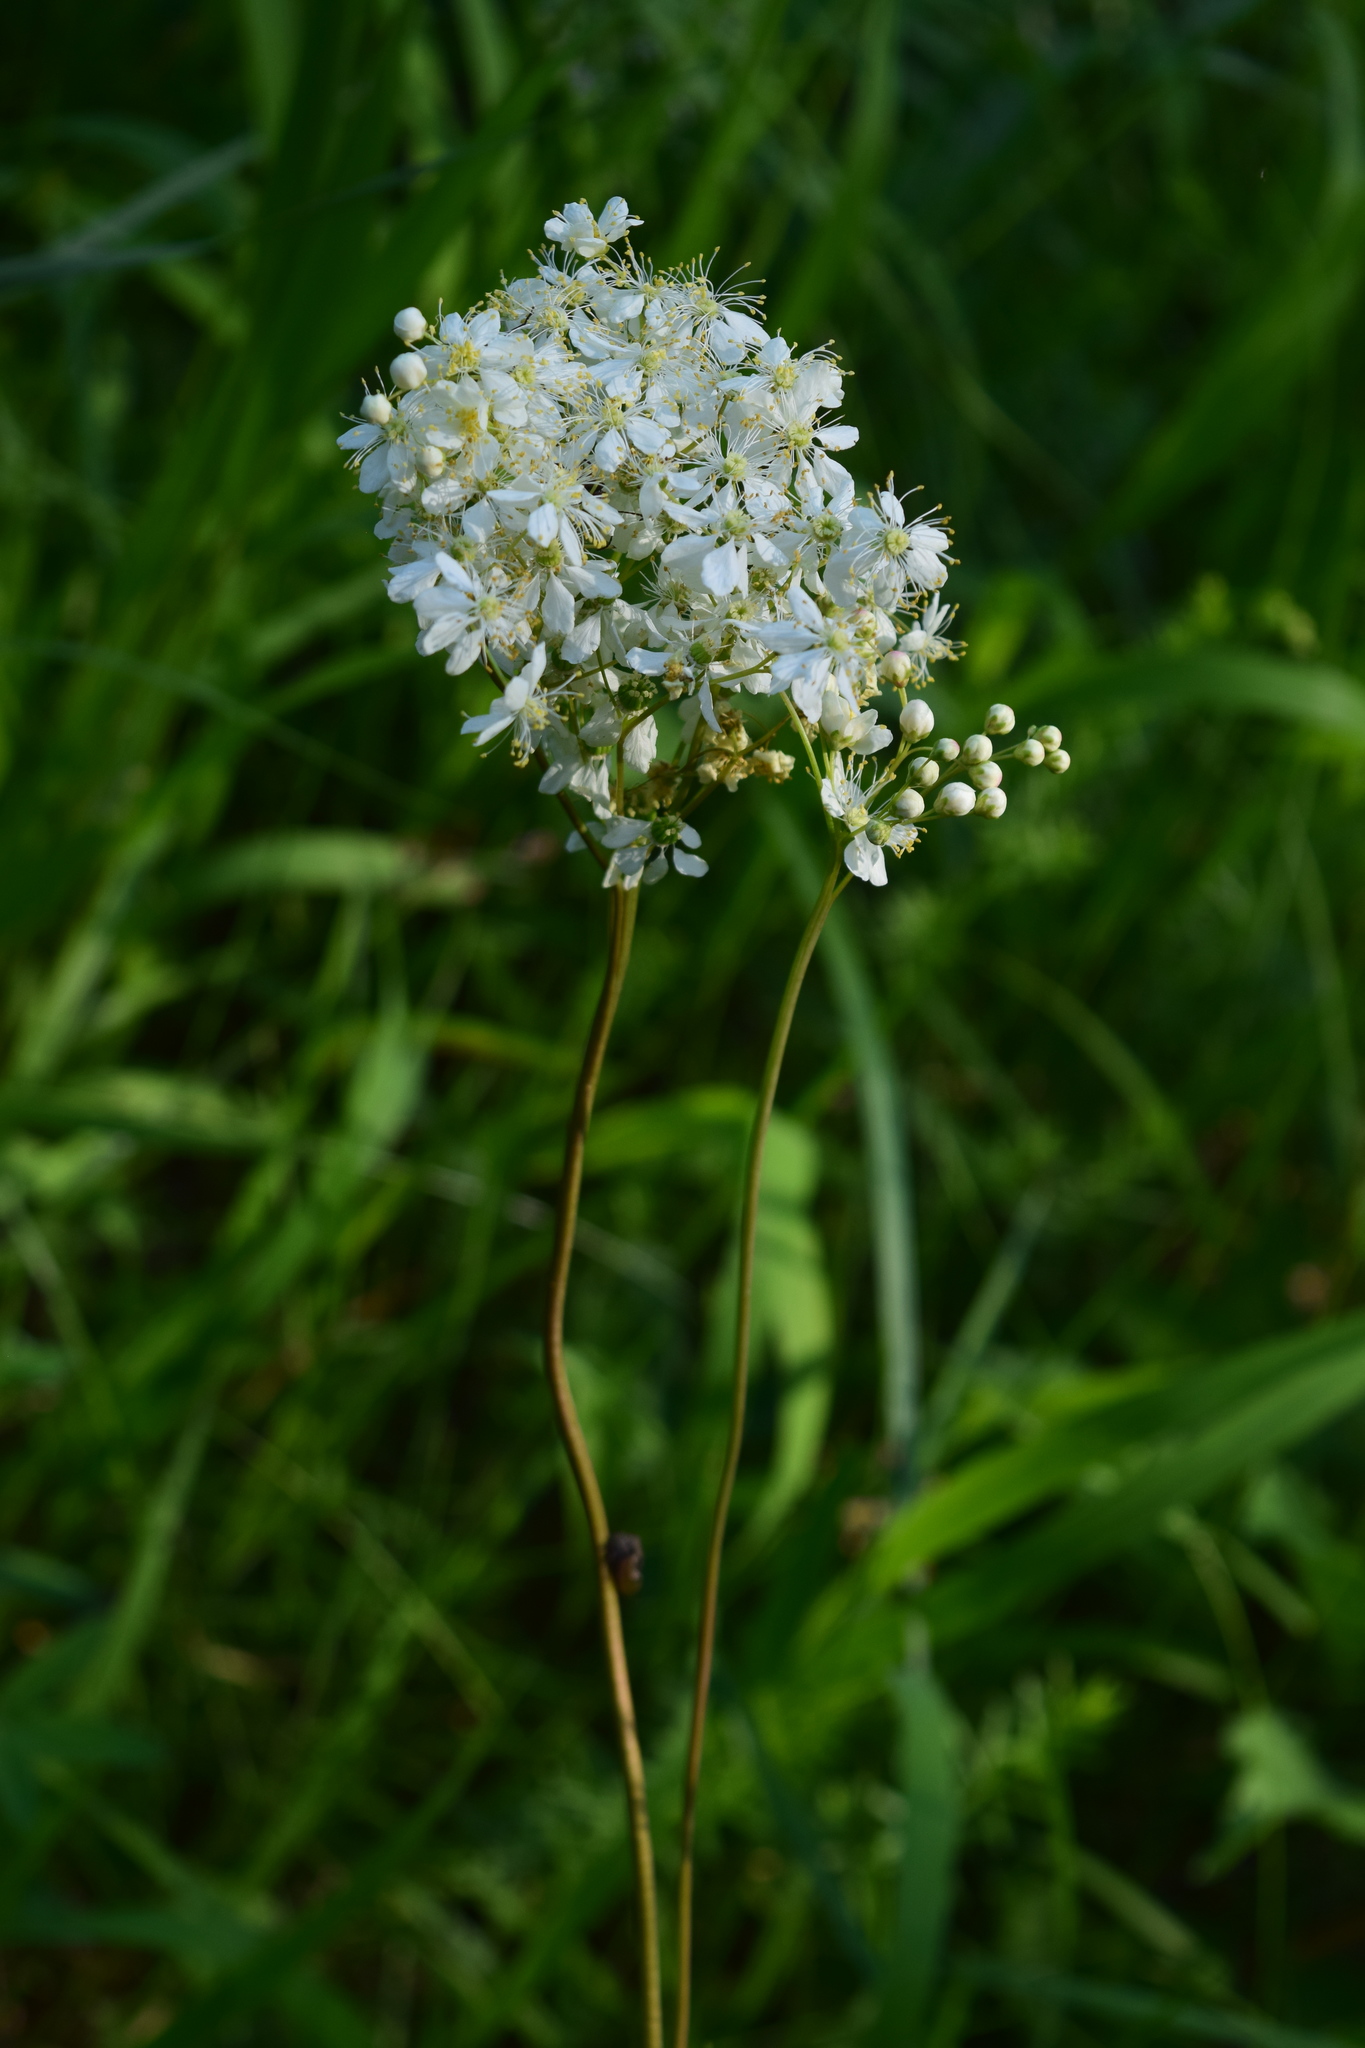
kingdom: Plantae
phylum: Tracheophyta
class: Magnoliopsida
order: Rosales
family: Rosaceae
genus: Filipendula
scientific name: Filipendula vulgaris
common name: Dropwort
